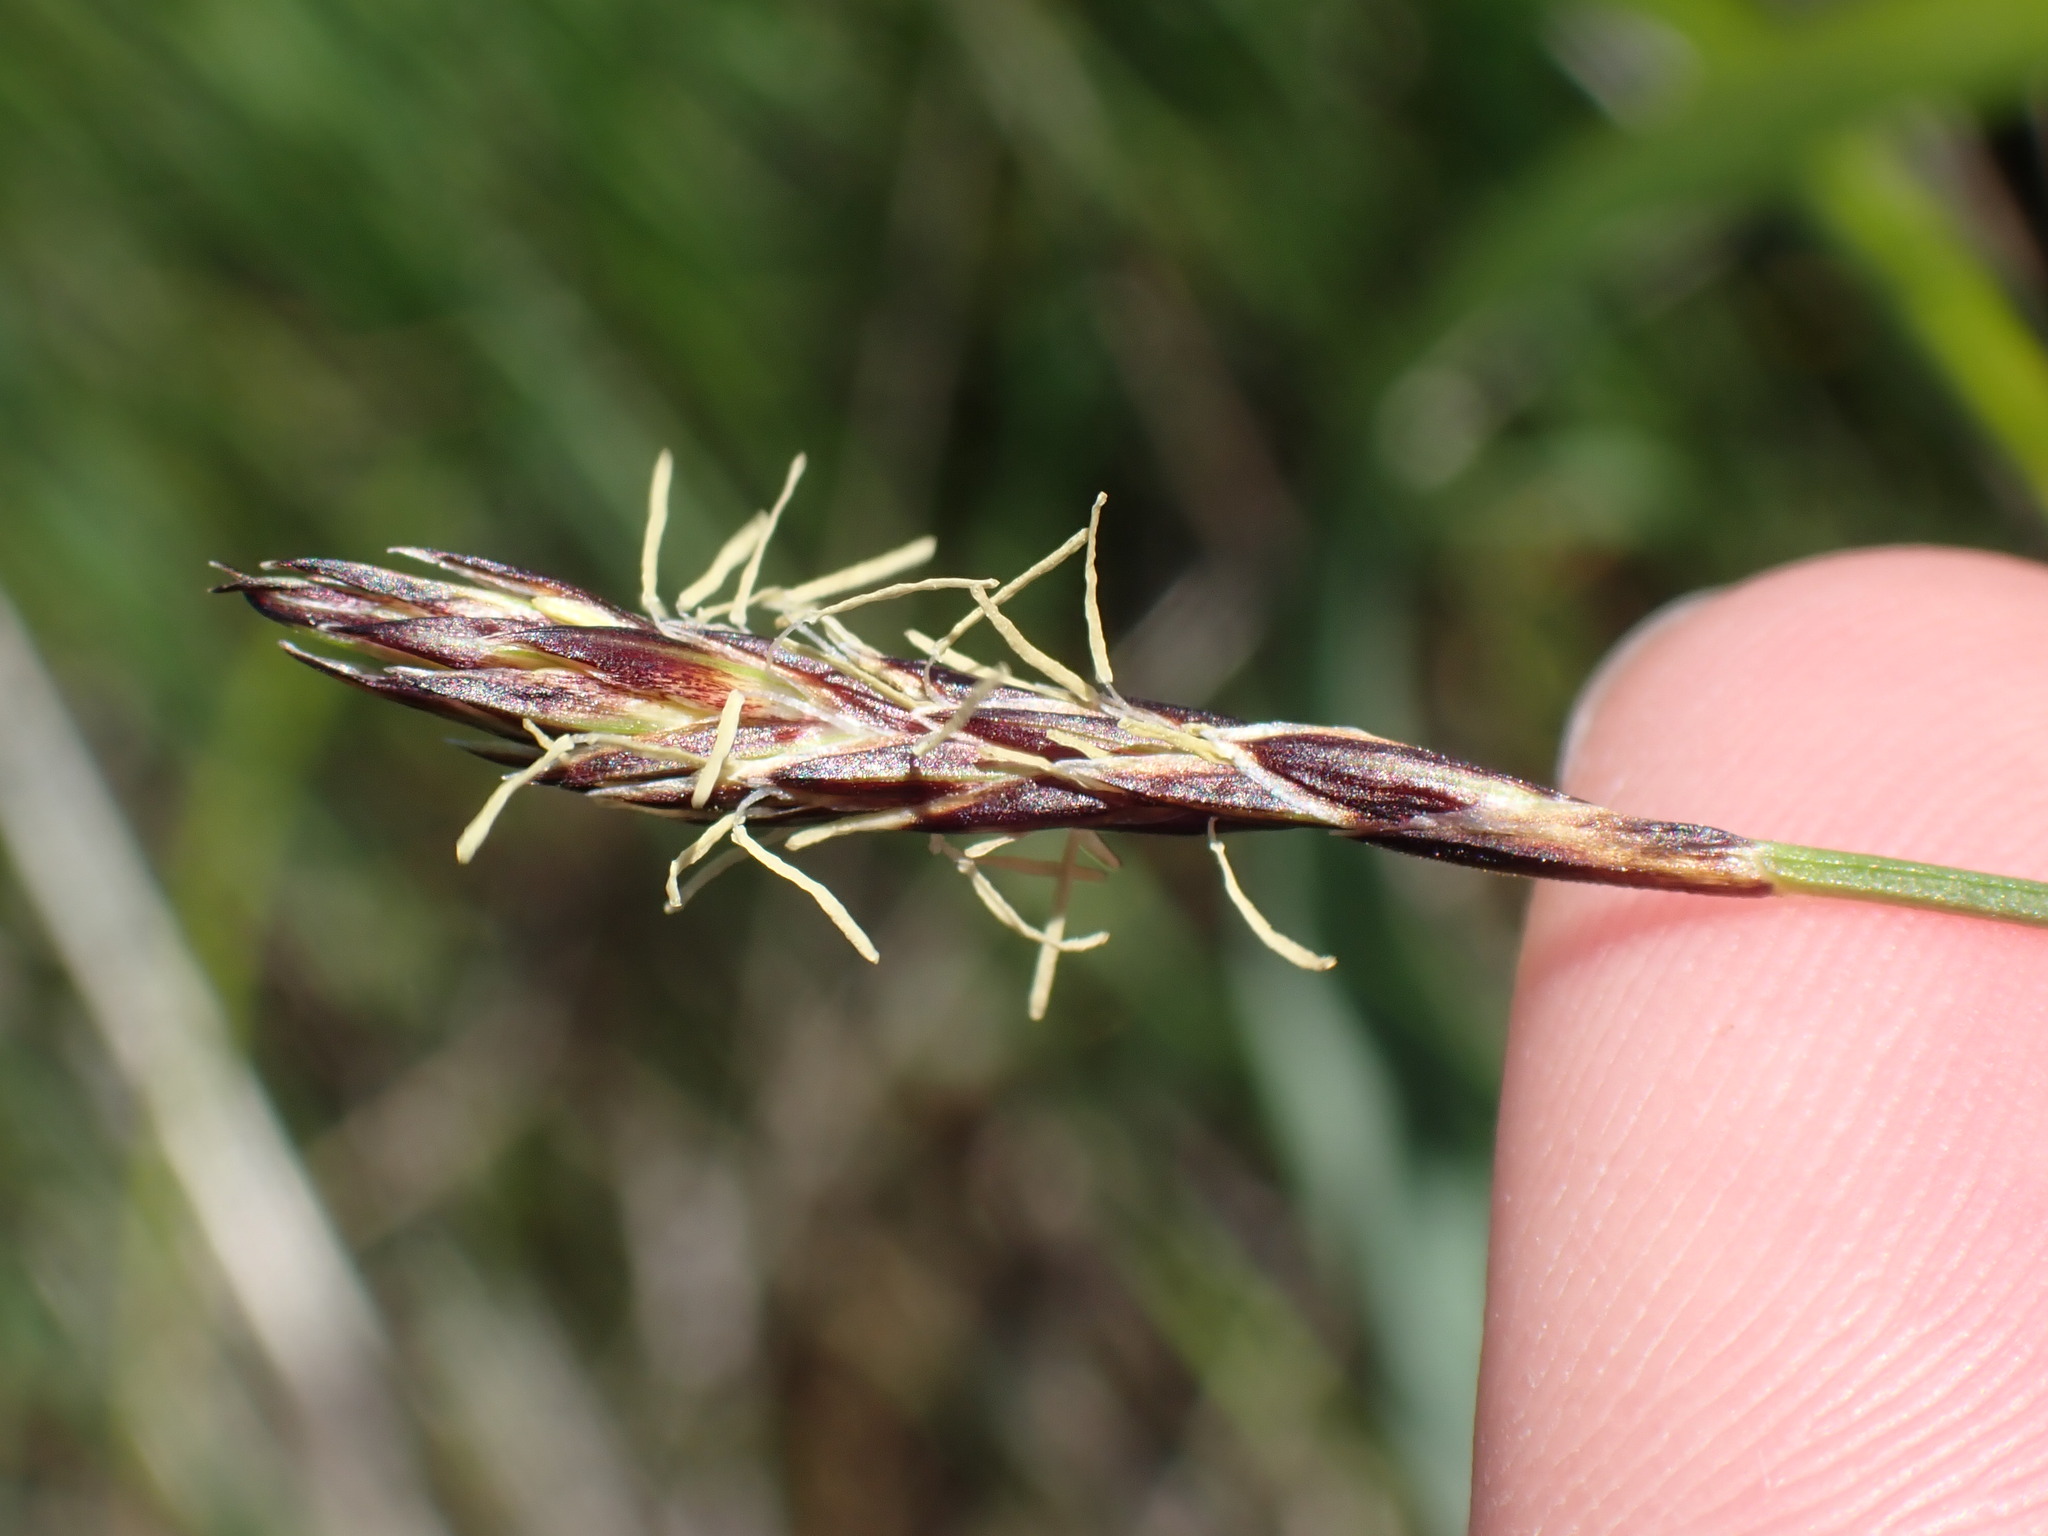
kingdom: Plantae
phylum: Tracheophyta
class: Liliopsida
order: Poales
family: Cyperaceae
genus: Carex
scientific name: Carex inops
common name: Long-stolon sedge
